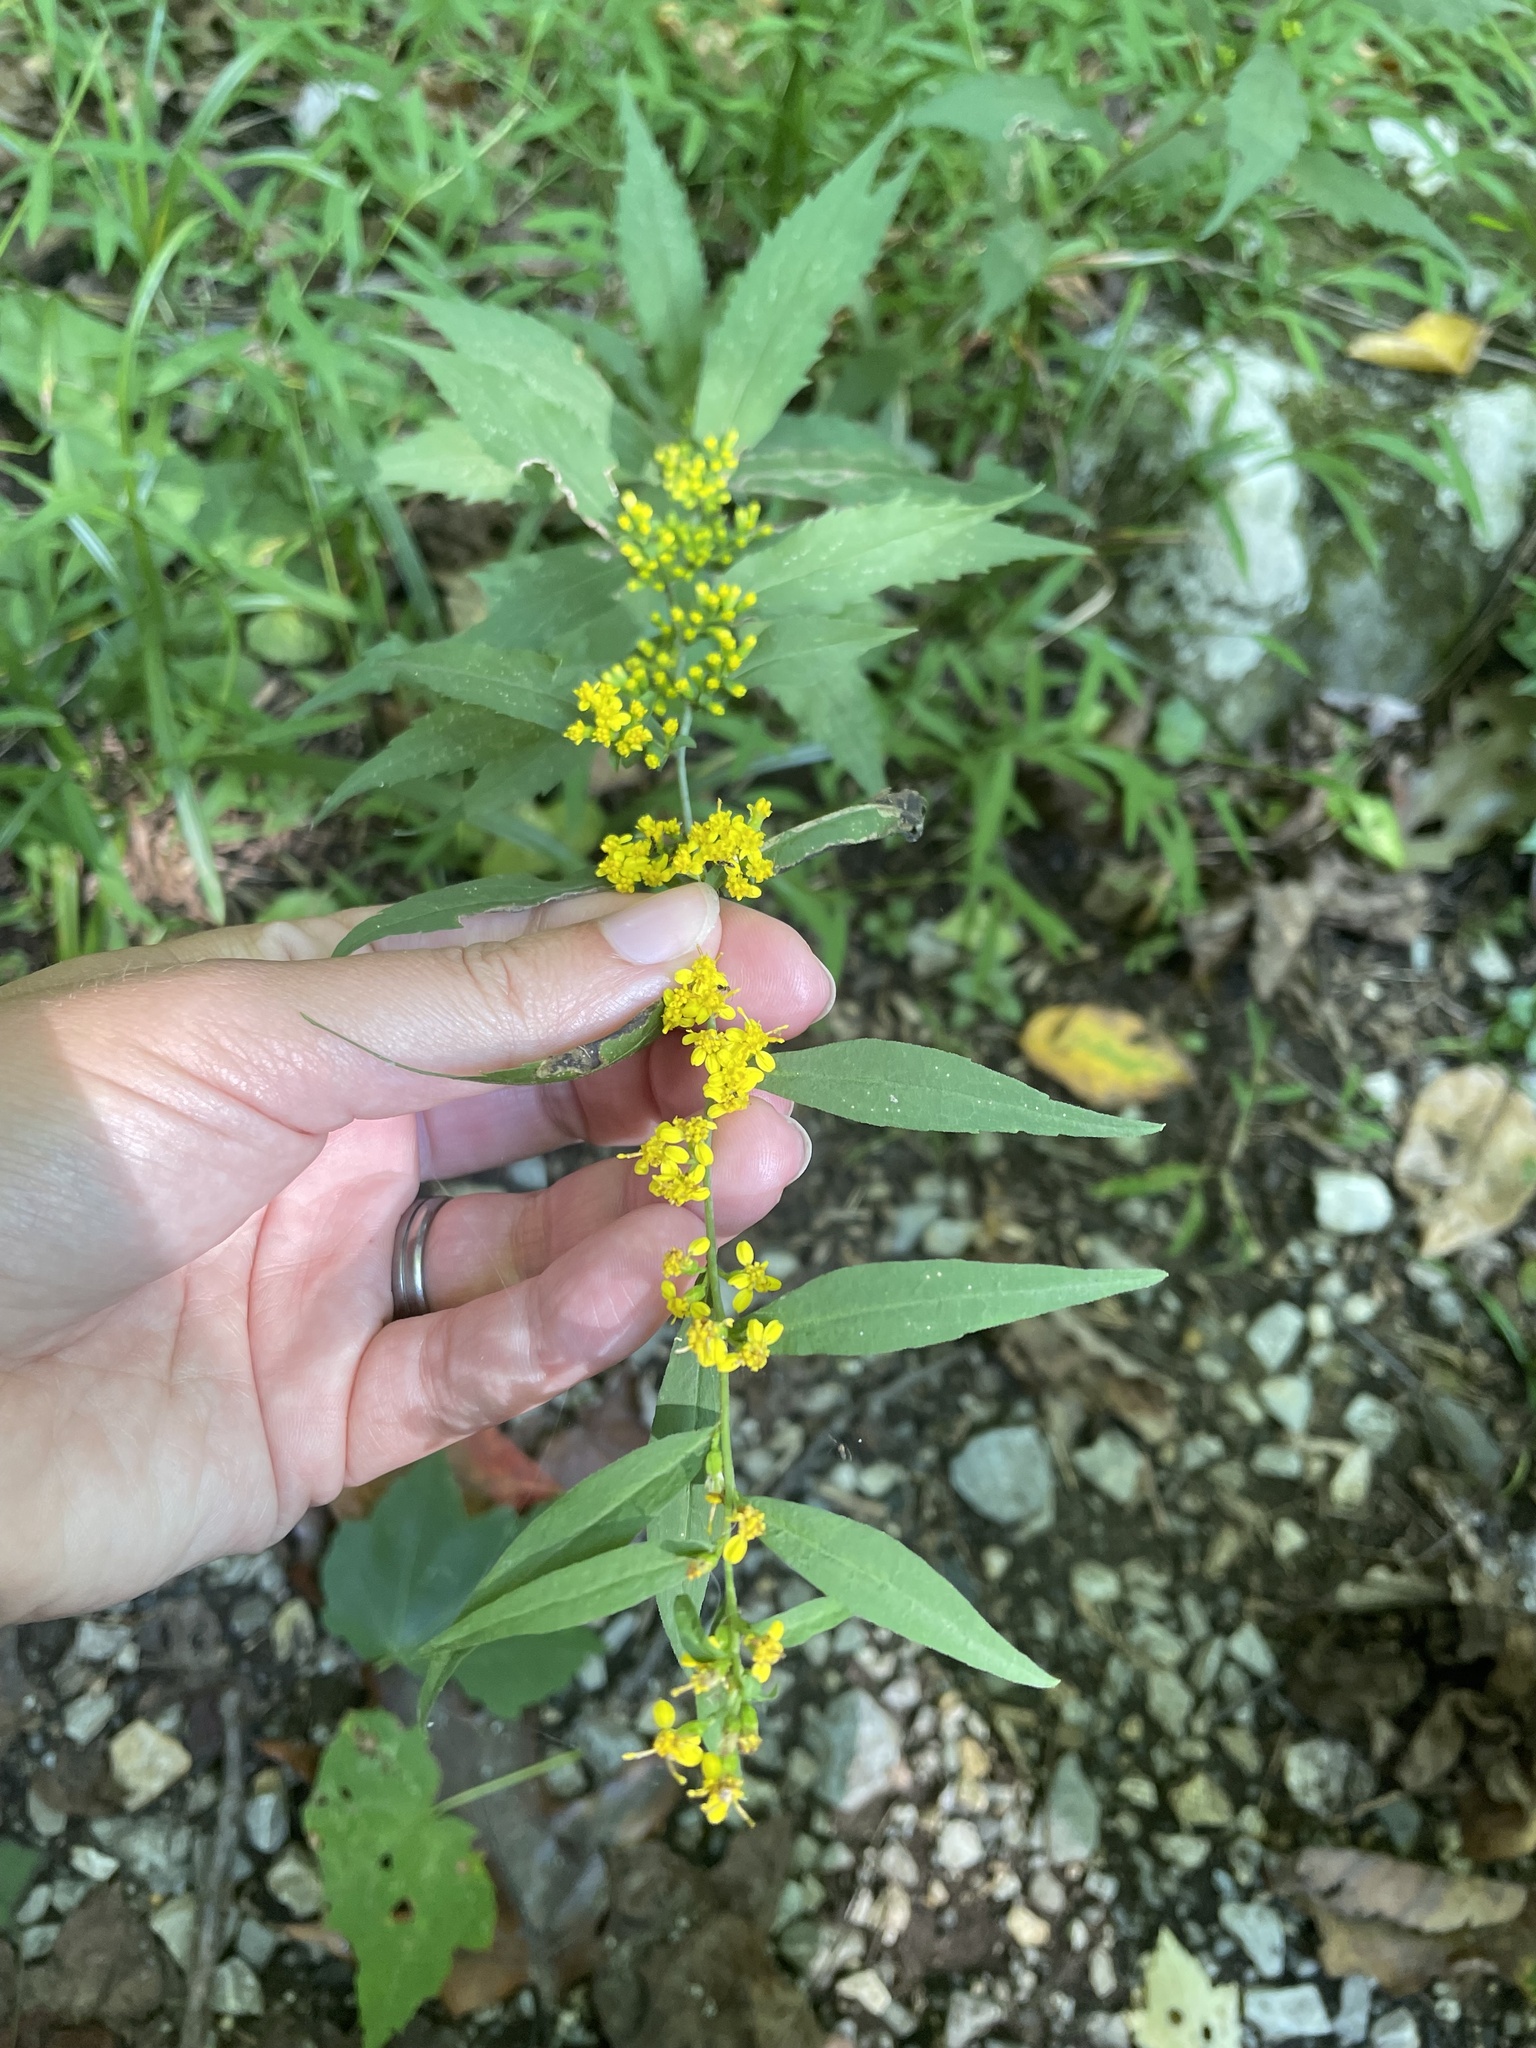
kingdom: Plantae
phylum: Tracheophyta
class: Magnoliopsida
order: Asterales
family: Asteraceae
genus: Solidago
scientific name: Solidago caesia
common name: Woodland goldenrod
